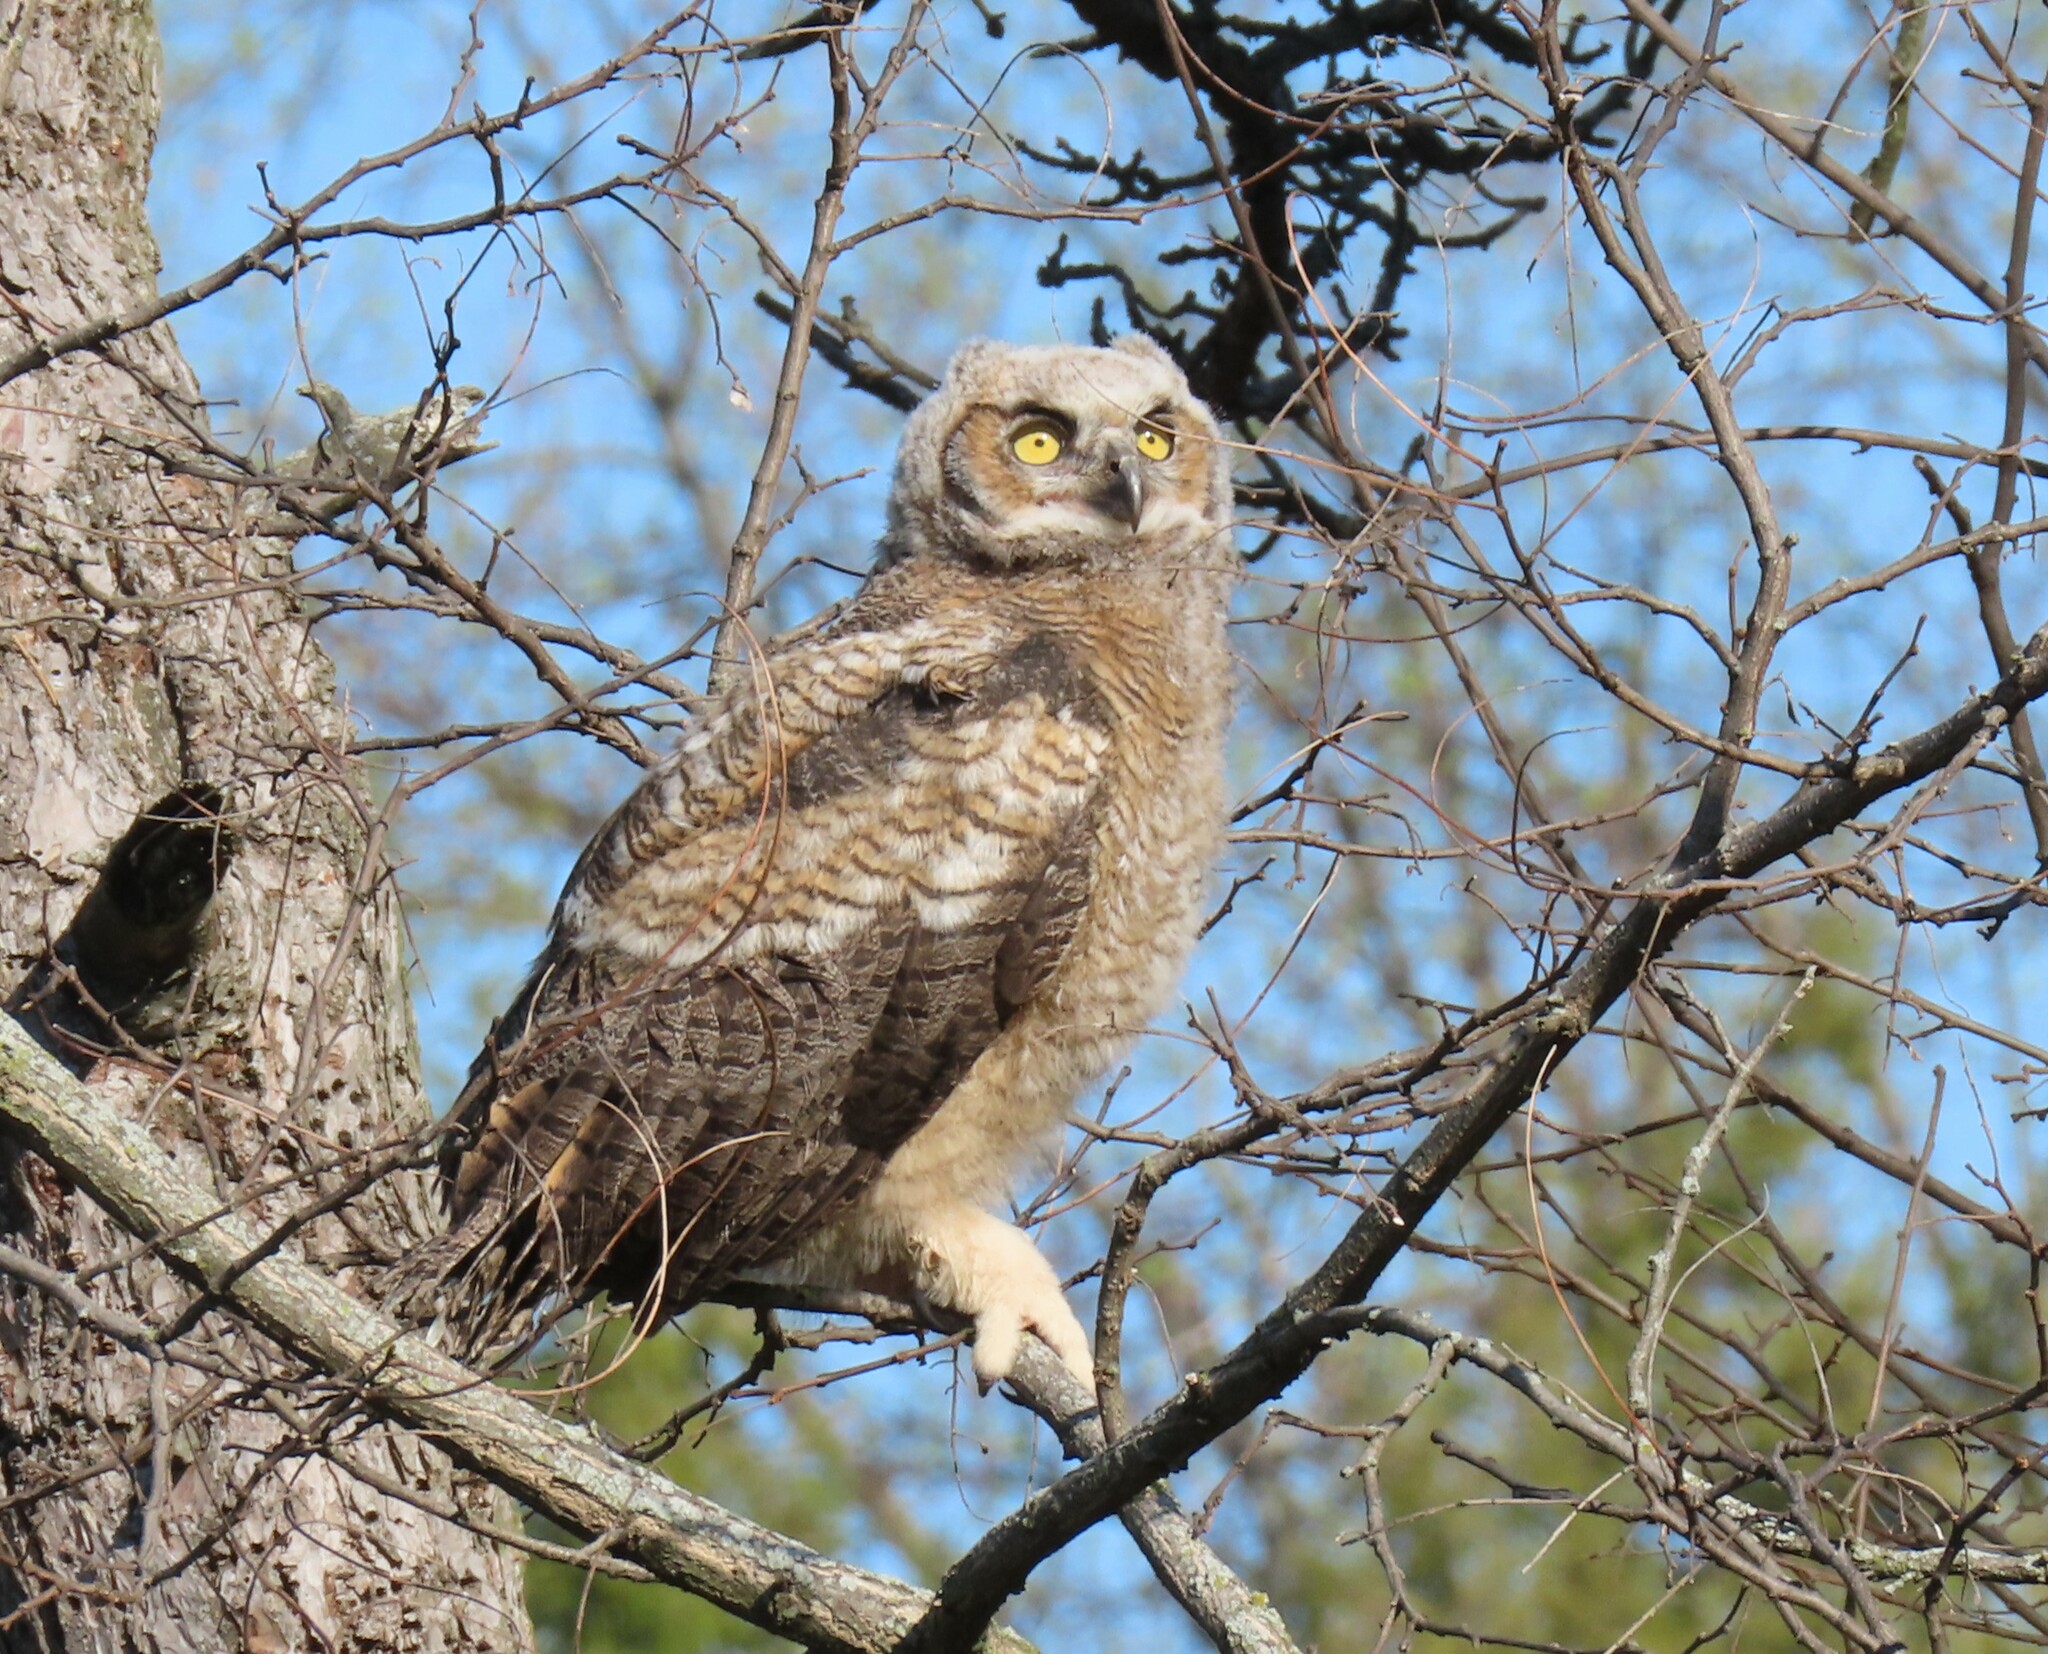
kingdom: Animalia
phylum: Chordata
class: Aves
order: Strigiformes
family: Strigidae
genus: Bubo
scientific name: Bubo virginianus
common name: Great horned owl
